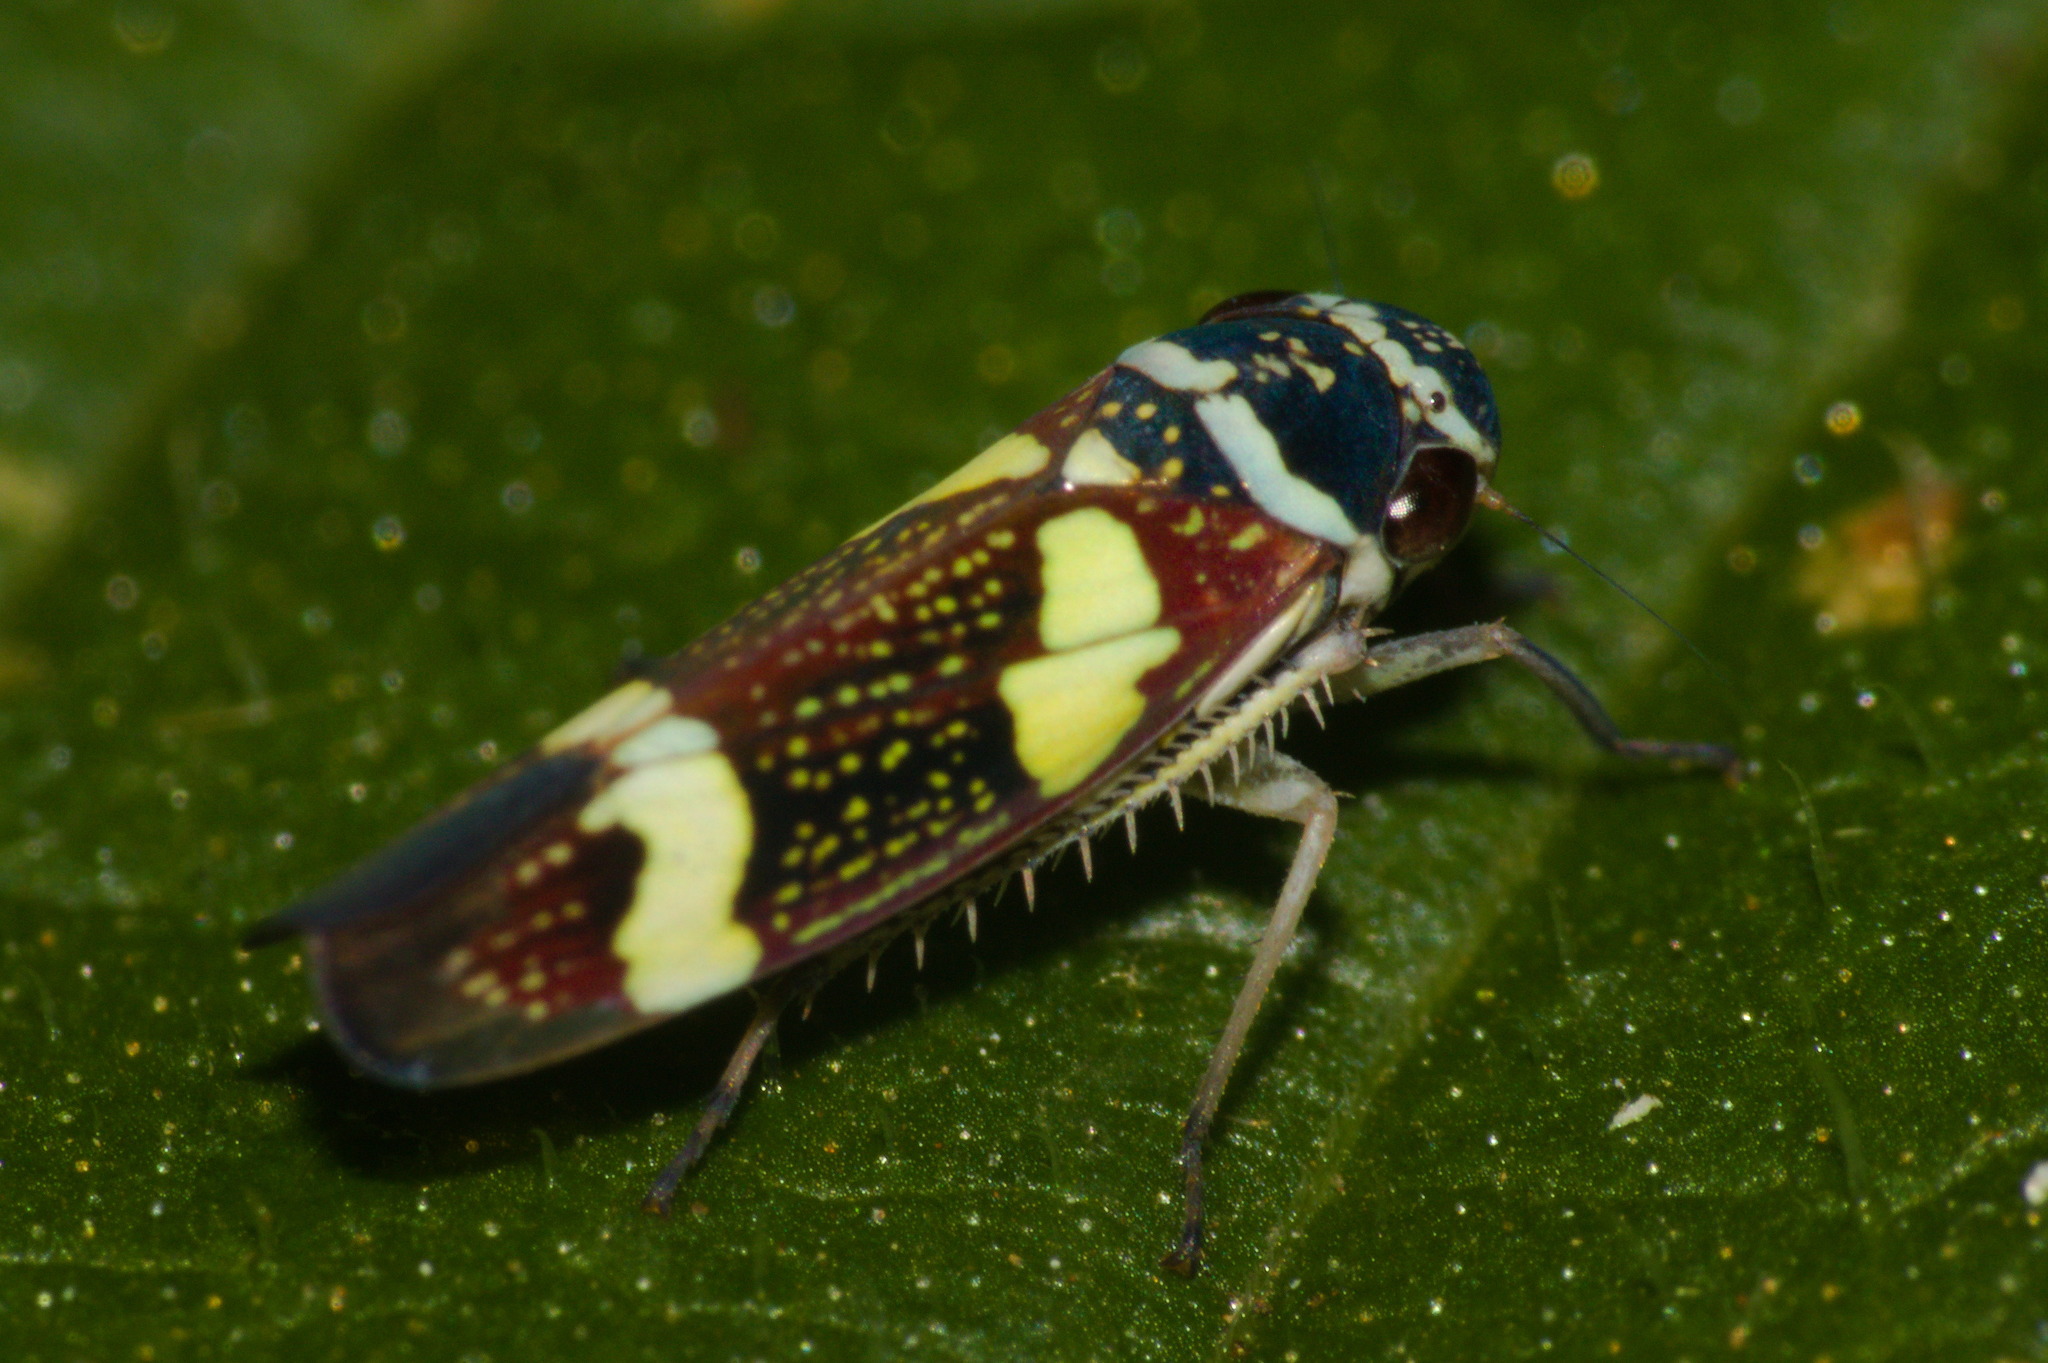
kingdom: Animalia
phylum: Arthropoda
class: Insecta
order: Hemiptera
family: Cicadellidae
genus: Macugonalia
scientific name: Macugonalia leucomelas
